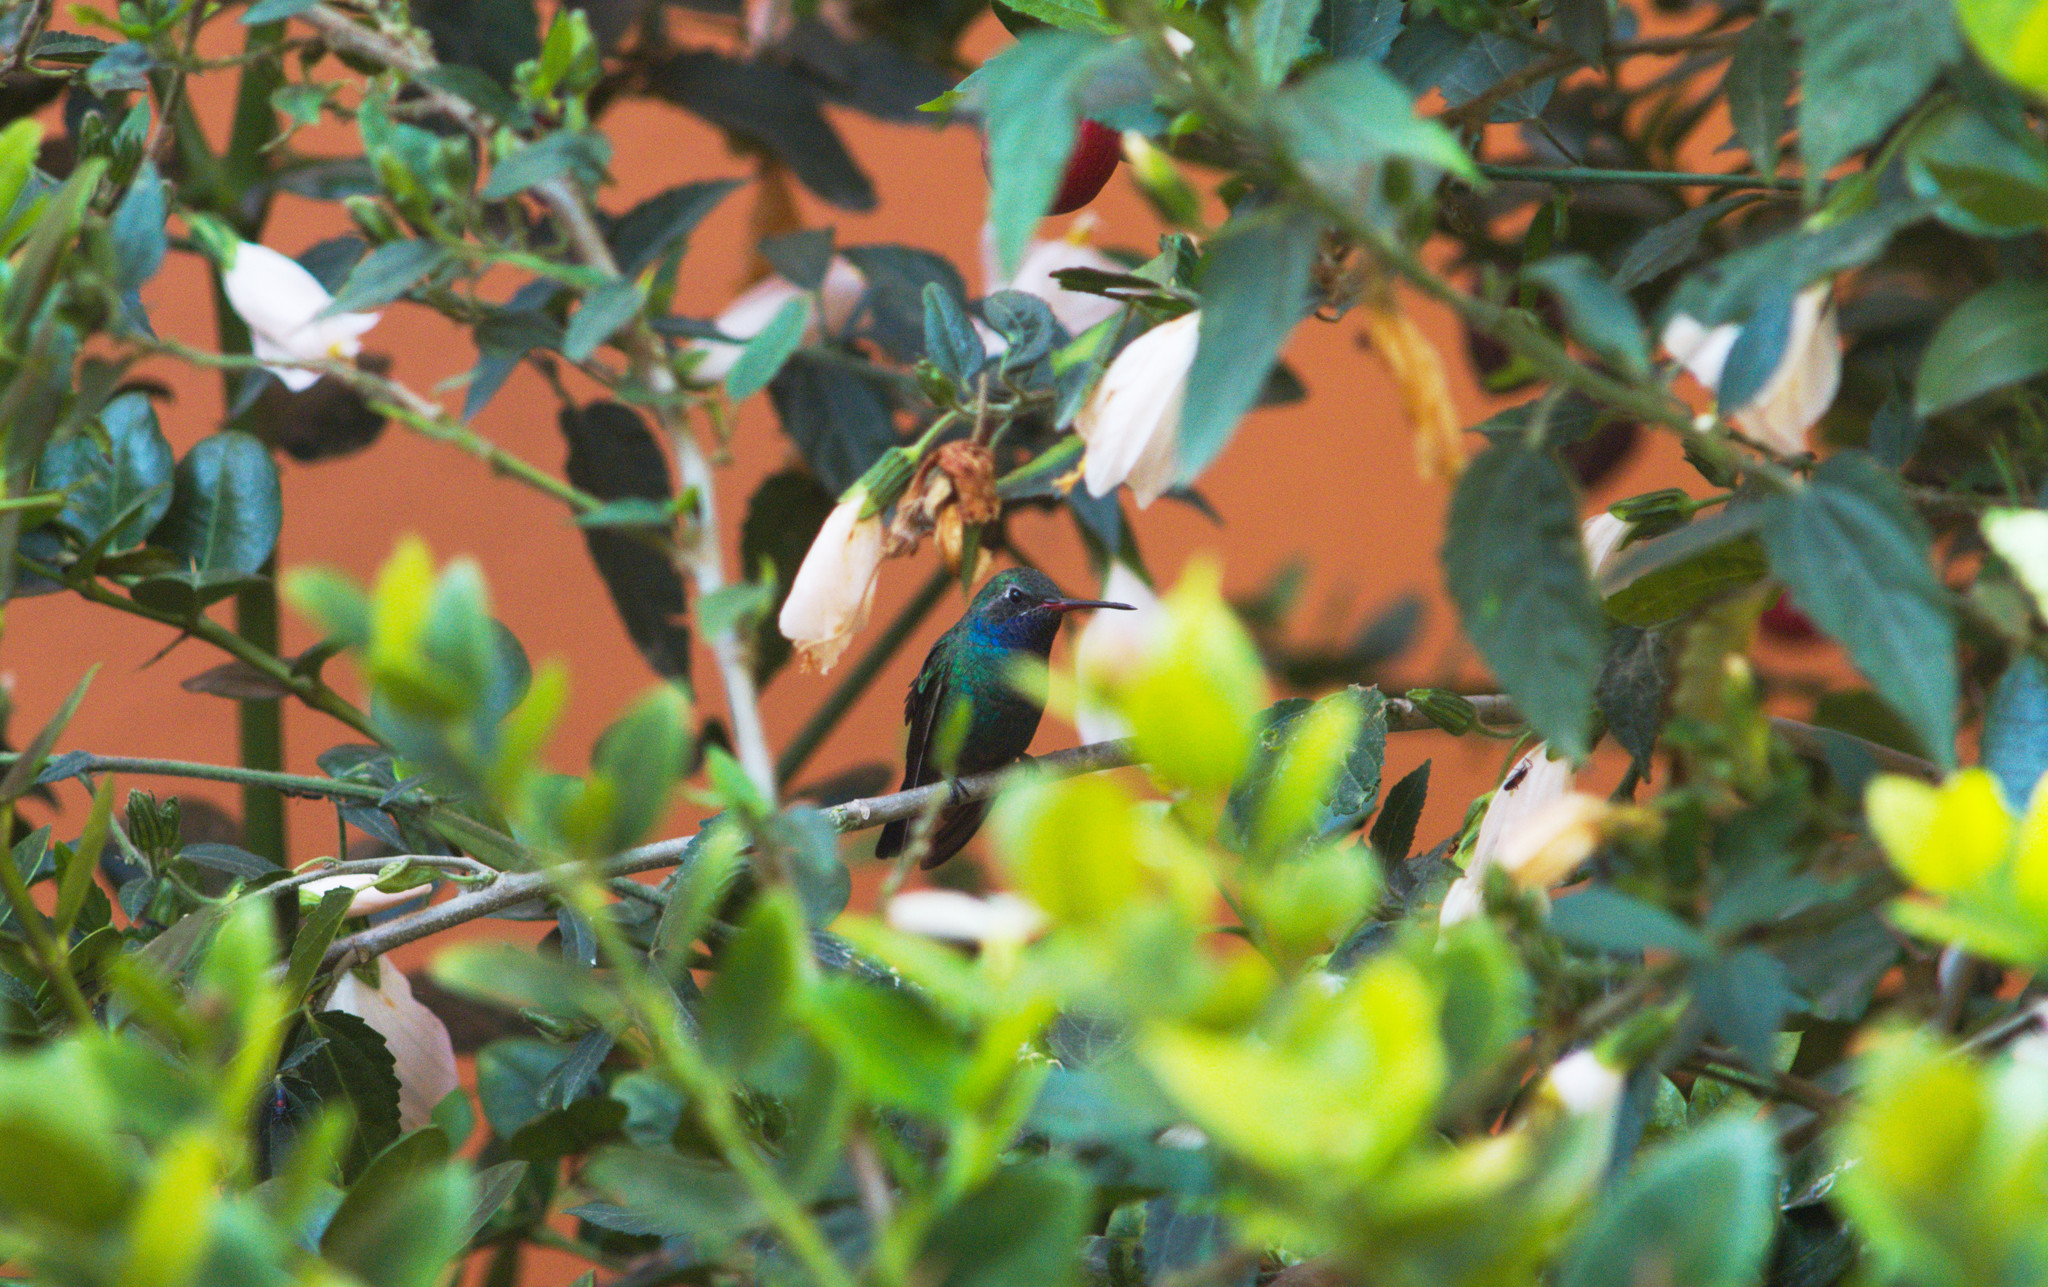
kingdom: Animalia
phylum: Chordata
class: Aves
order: Apodiformes
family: Trochilidae
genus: Cynanthus
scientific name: Cynanthus latirostris
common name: Broad-billed hummingbird
